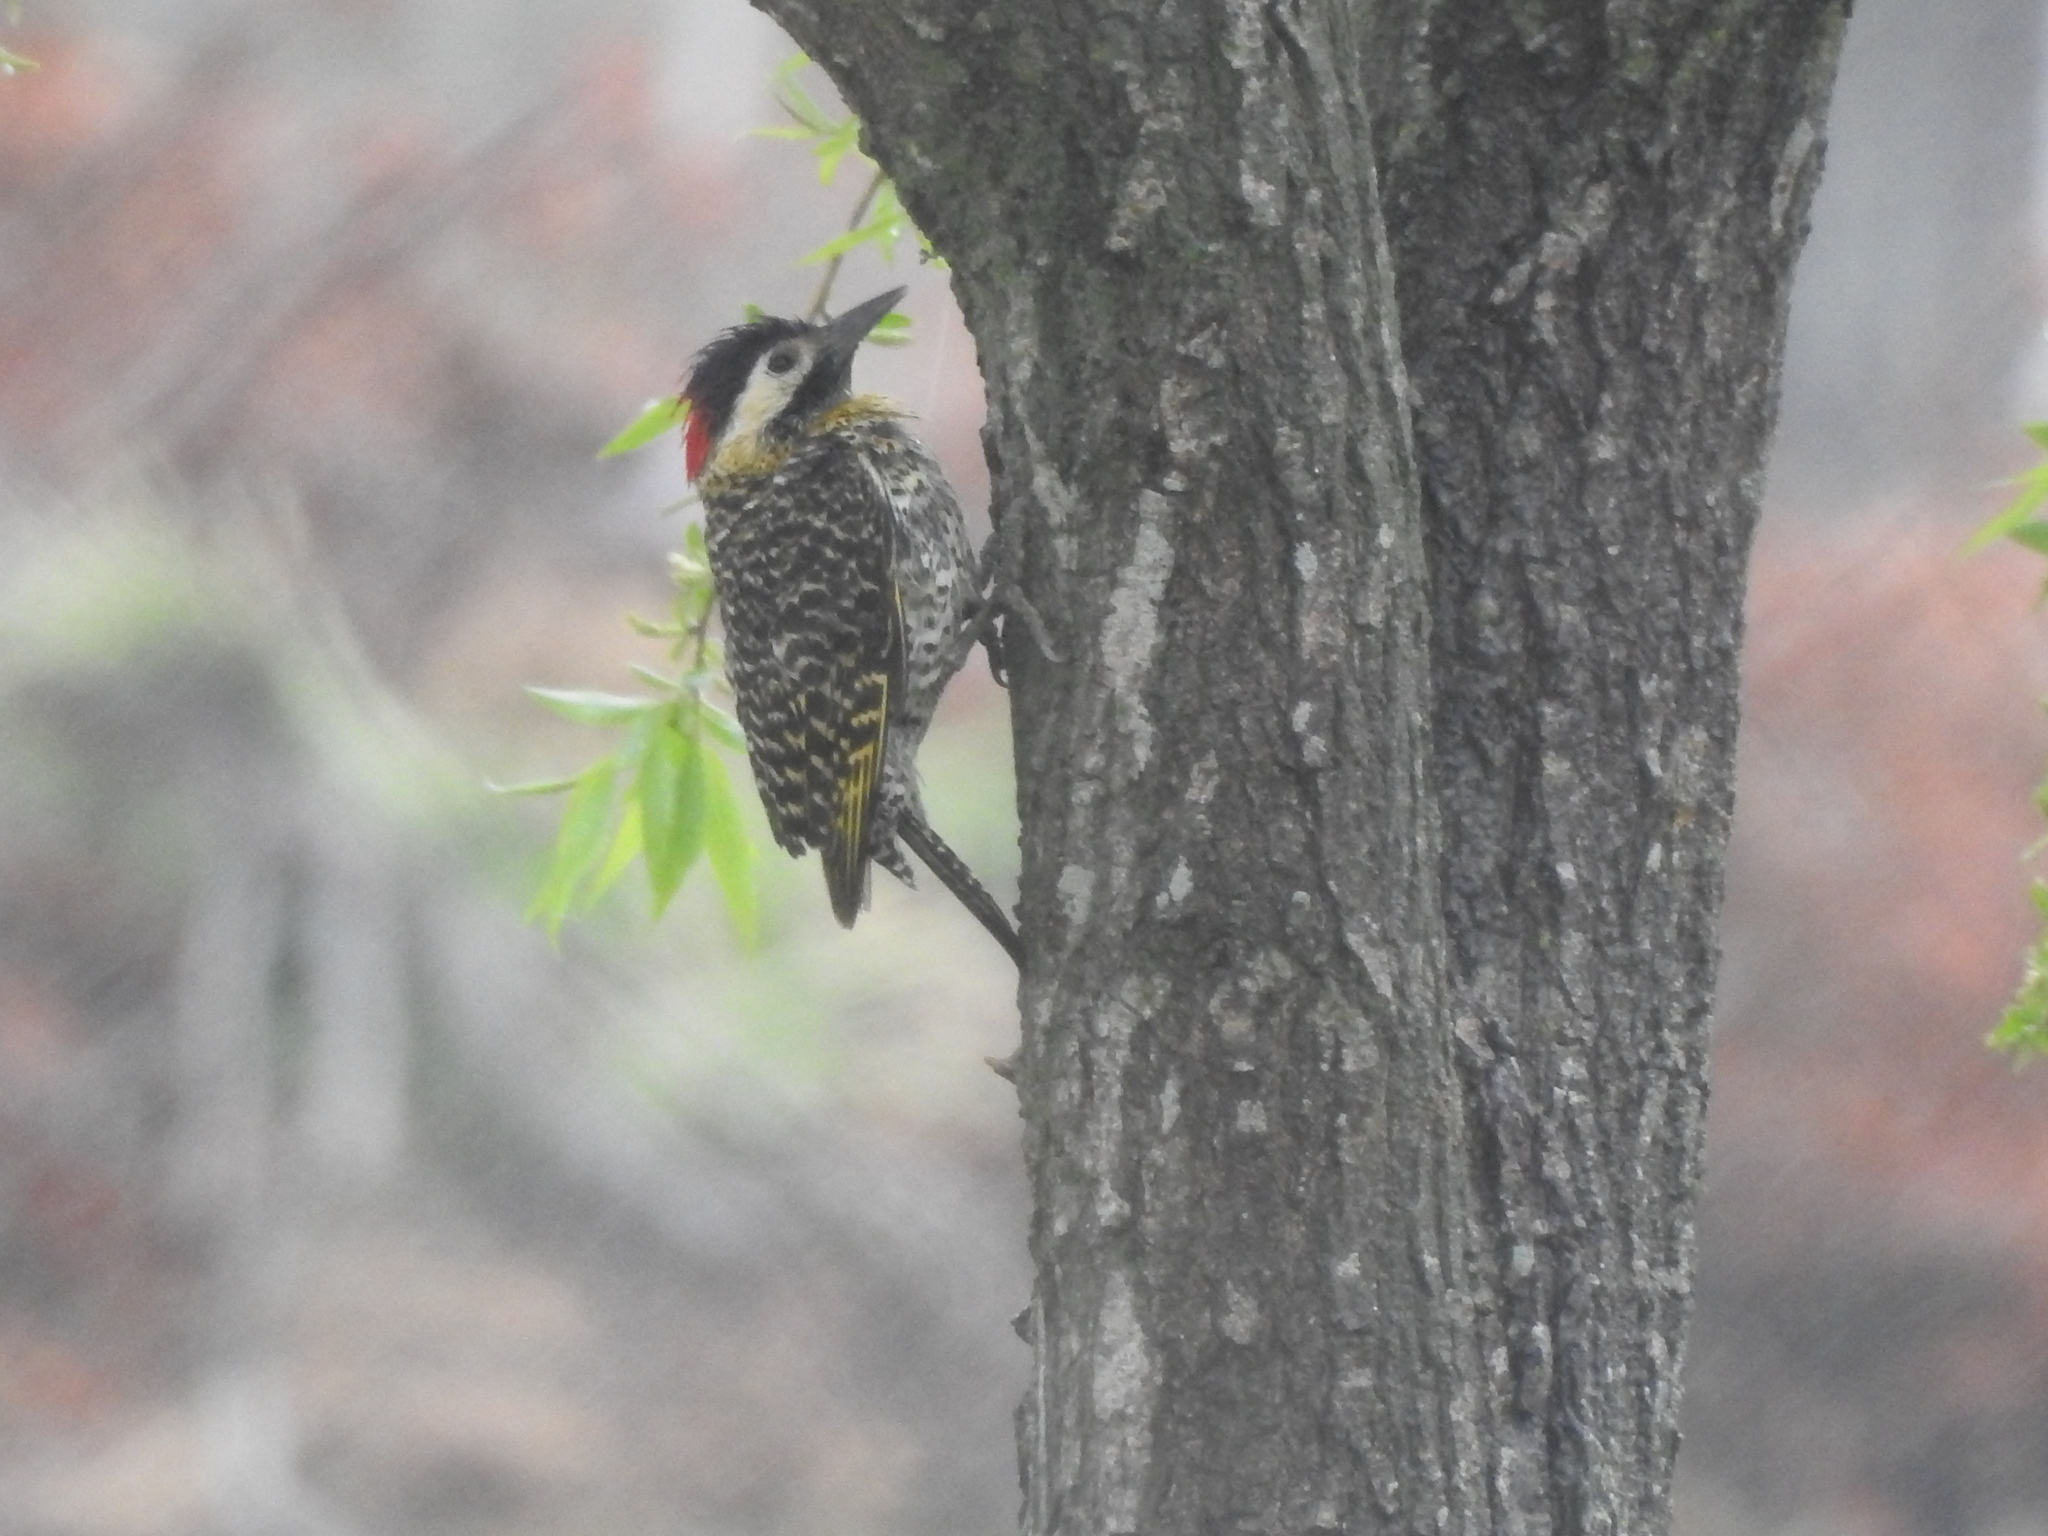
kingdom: Animalia
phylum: Chordata
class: Aves
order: Piciformes
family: Picidae
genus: Colaptes
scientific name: Colaptes melanochloros
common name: Green-barred woodpecker
